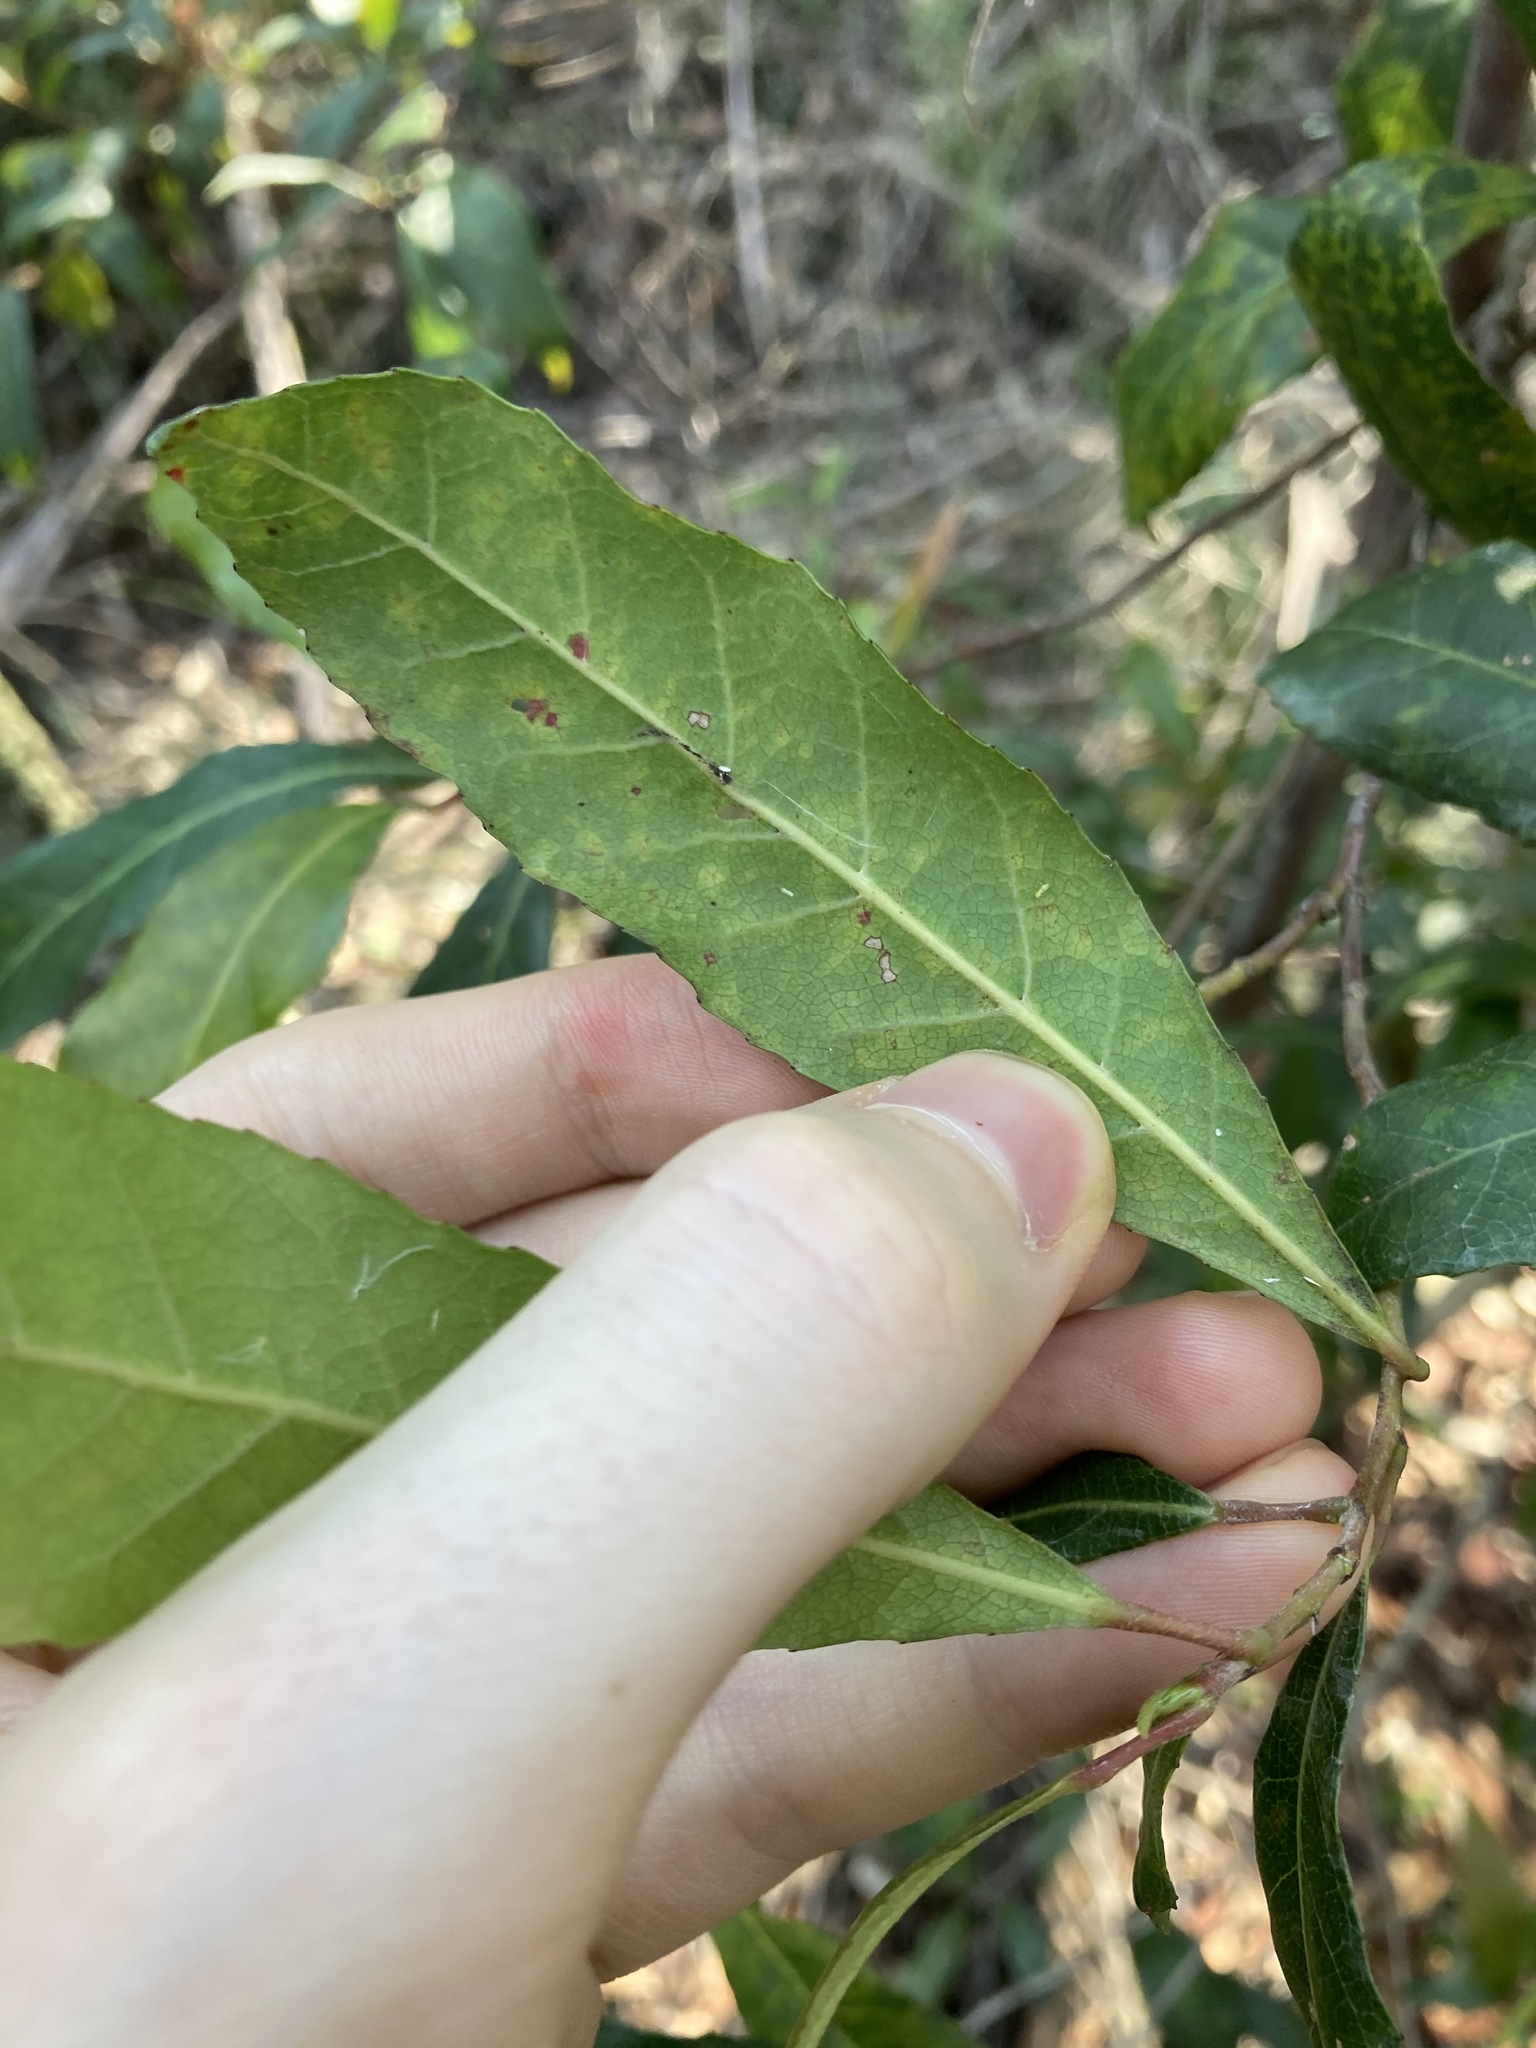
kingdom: Plantae
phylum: Tracheophyta
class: Magnoliopsida
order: Oxalidales
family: Elaeocarpaceae
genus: Elaeocarpus
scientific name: Elaeocarpus reticulatus
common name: Ash quandong
